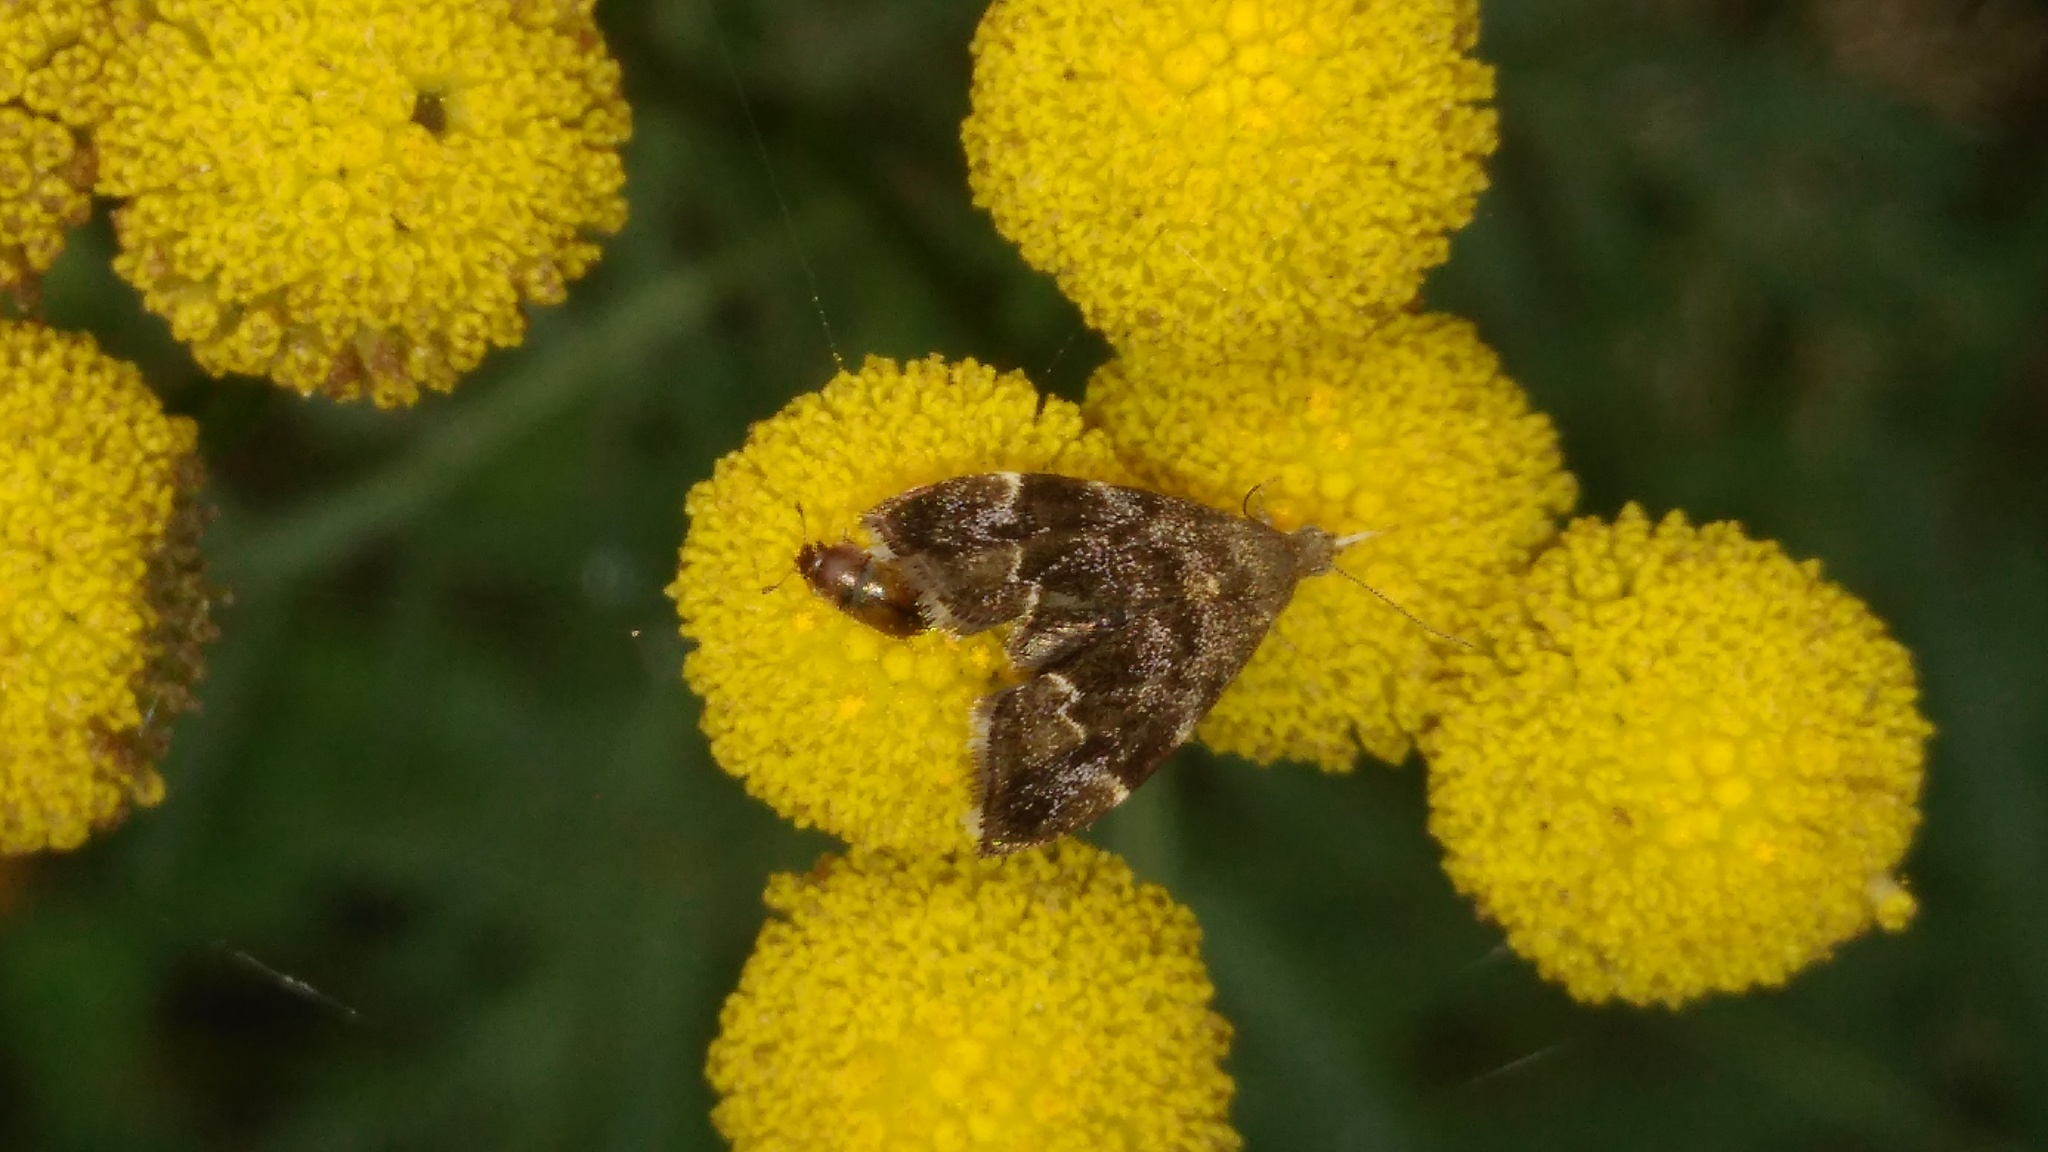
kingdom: Animalia
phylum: Arthropoda
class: Insecta
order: Lepidoptera
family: Choreutidae
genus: Anthophila
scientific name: Anthophila fabriciana
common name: Nettle-tap
